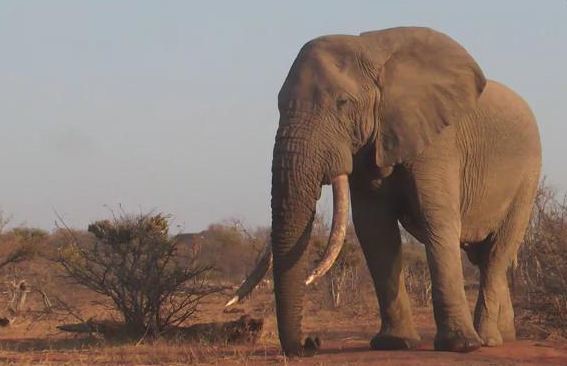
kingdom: Animalia
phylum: Chordata
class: Mammalia
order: Proboscidea
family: Elephantidae
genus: Loxodonta
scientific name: Loxodonta africana
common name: African elephant
